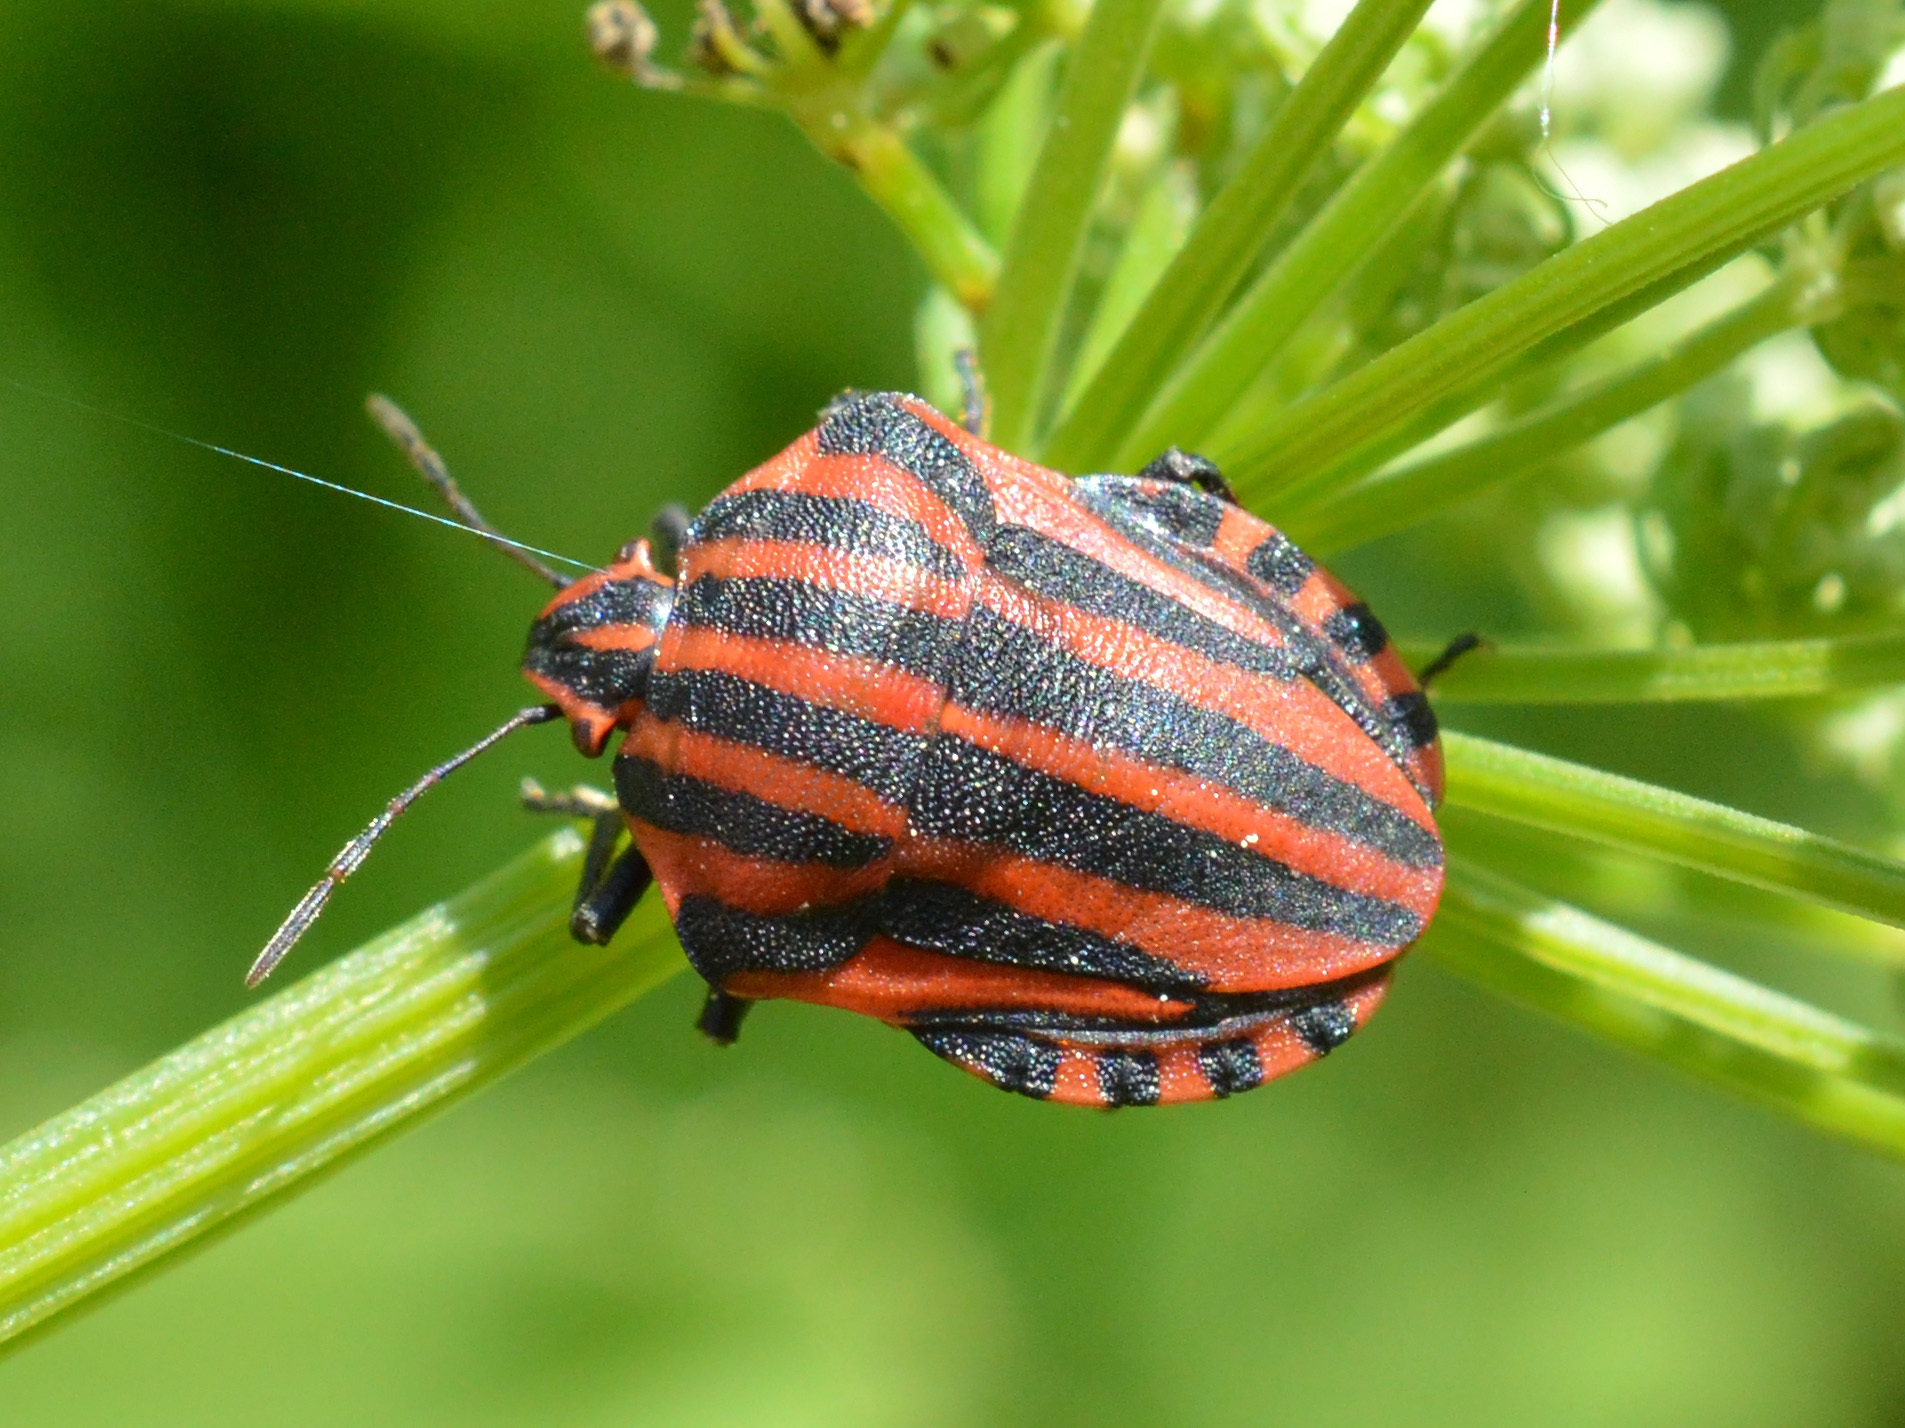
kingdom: Animalia
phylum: Arthropoda
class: Insecta
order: Hemiptera
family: Pentatomidae
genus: Graphosoma
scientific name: Graphosoma italicum
